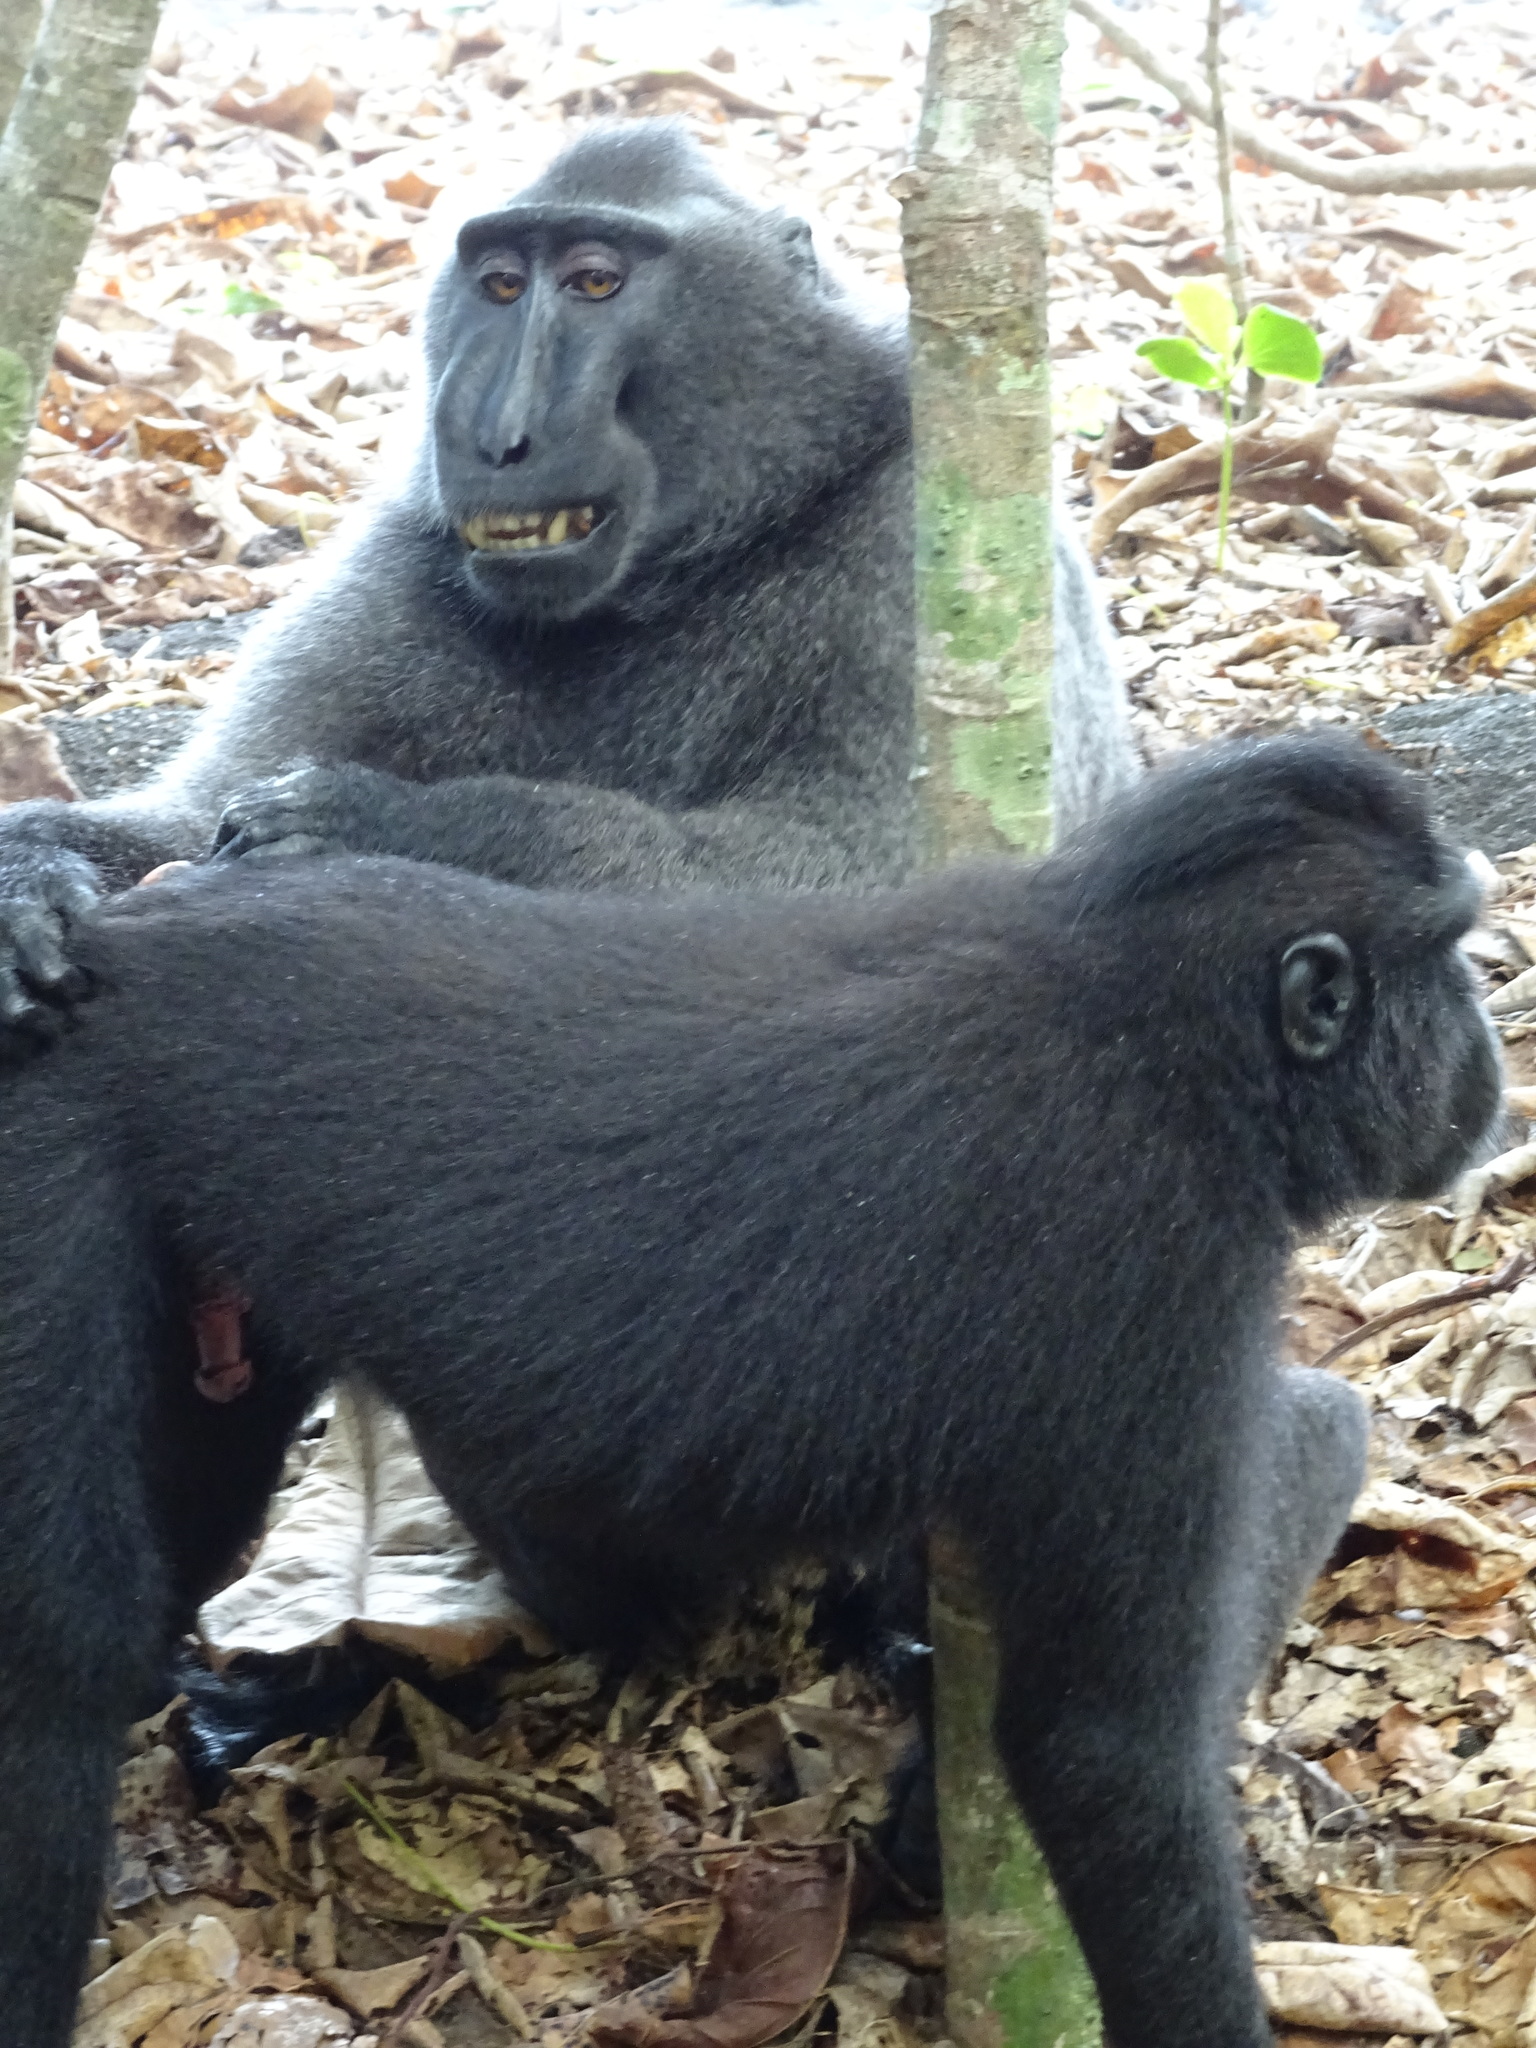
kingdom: Animalia
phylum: Chordata
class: Mammalia
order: Primates
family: Cercopithecidae
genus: Macaca
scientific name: Macaca nigra
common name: Celebes crested macaque
